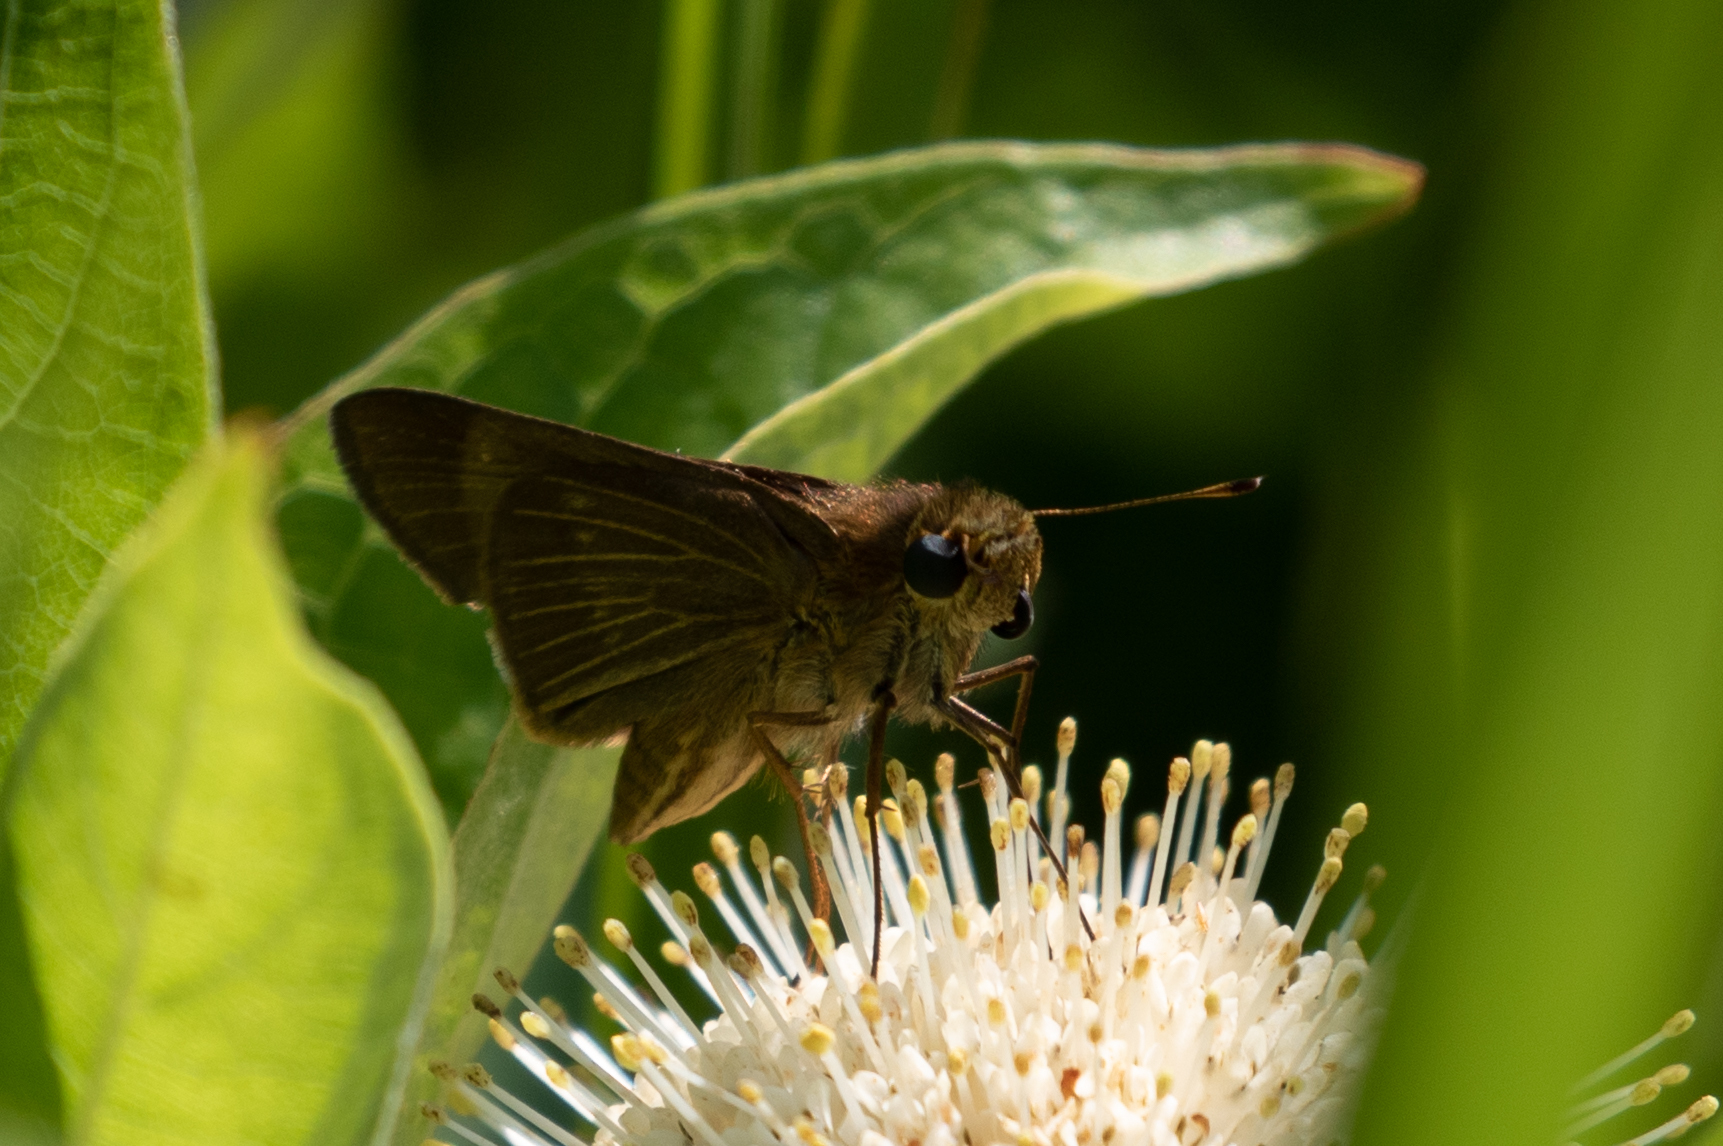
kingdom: Animalia
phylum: Arthropoda
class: Insecta
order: Lepidoptera
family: Hesperiidae
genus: Panoquina
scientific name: Panoquina ocola
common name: Ocola skipper
